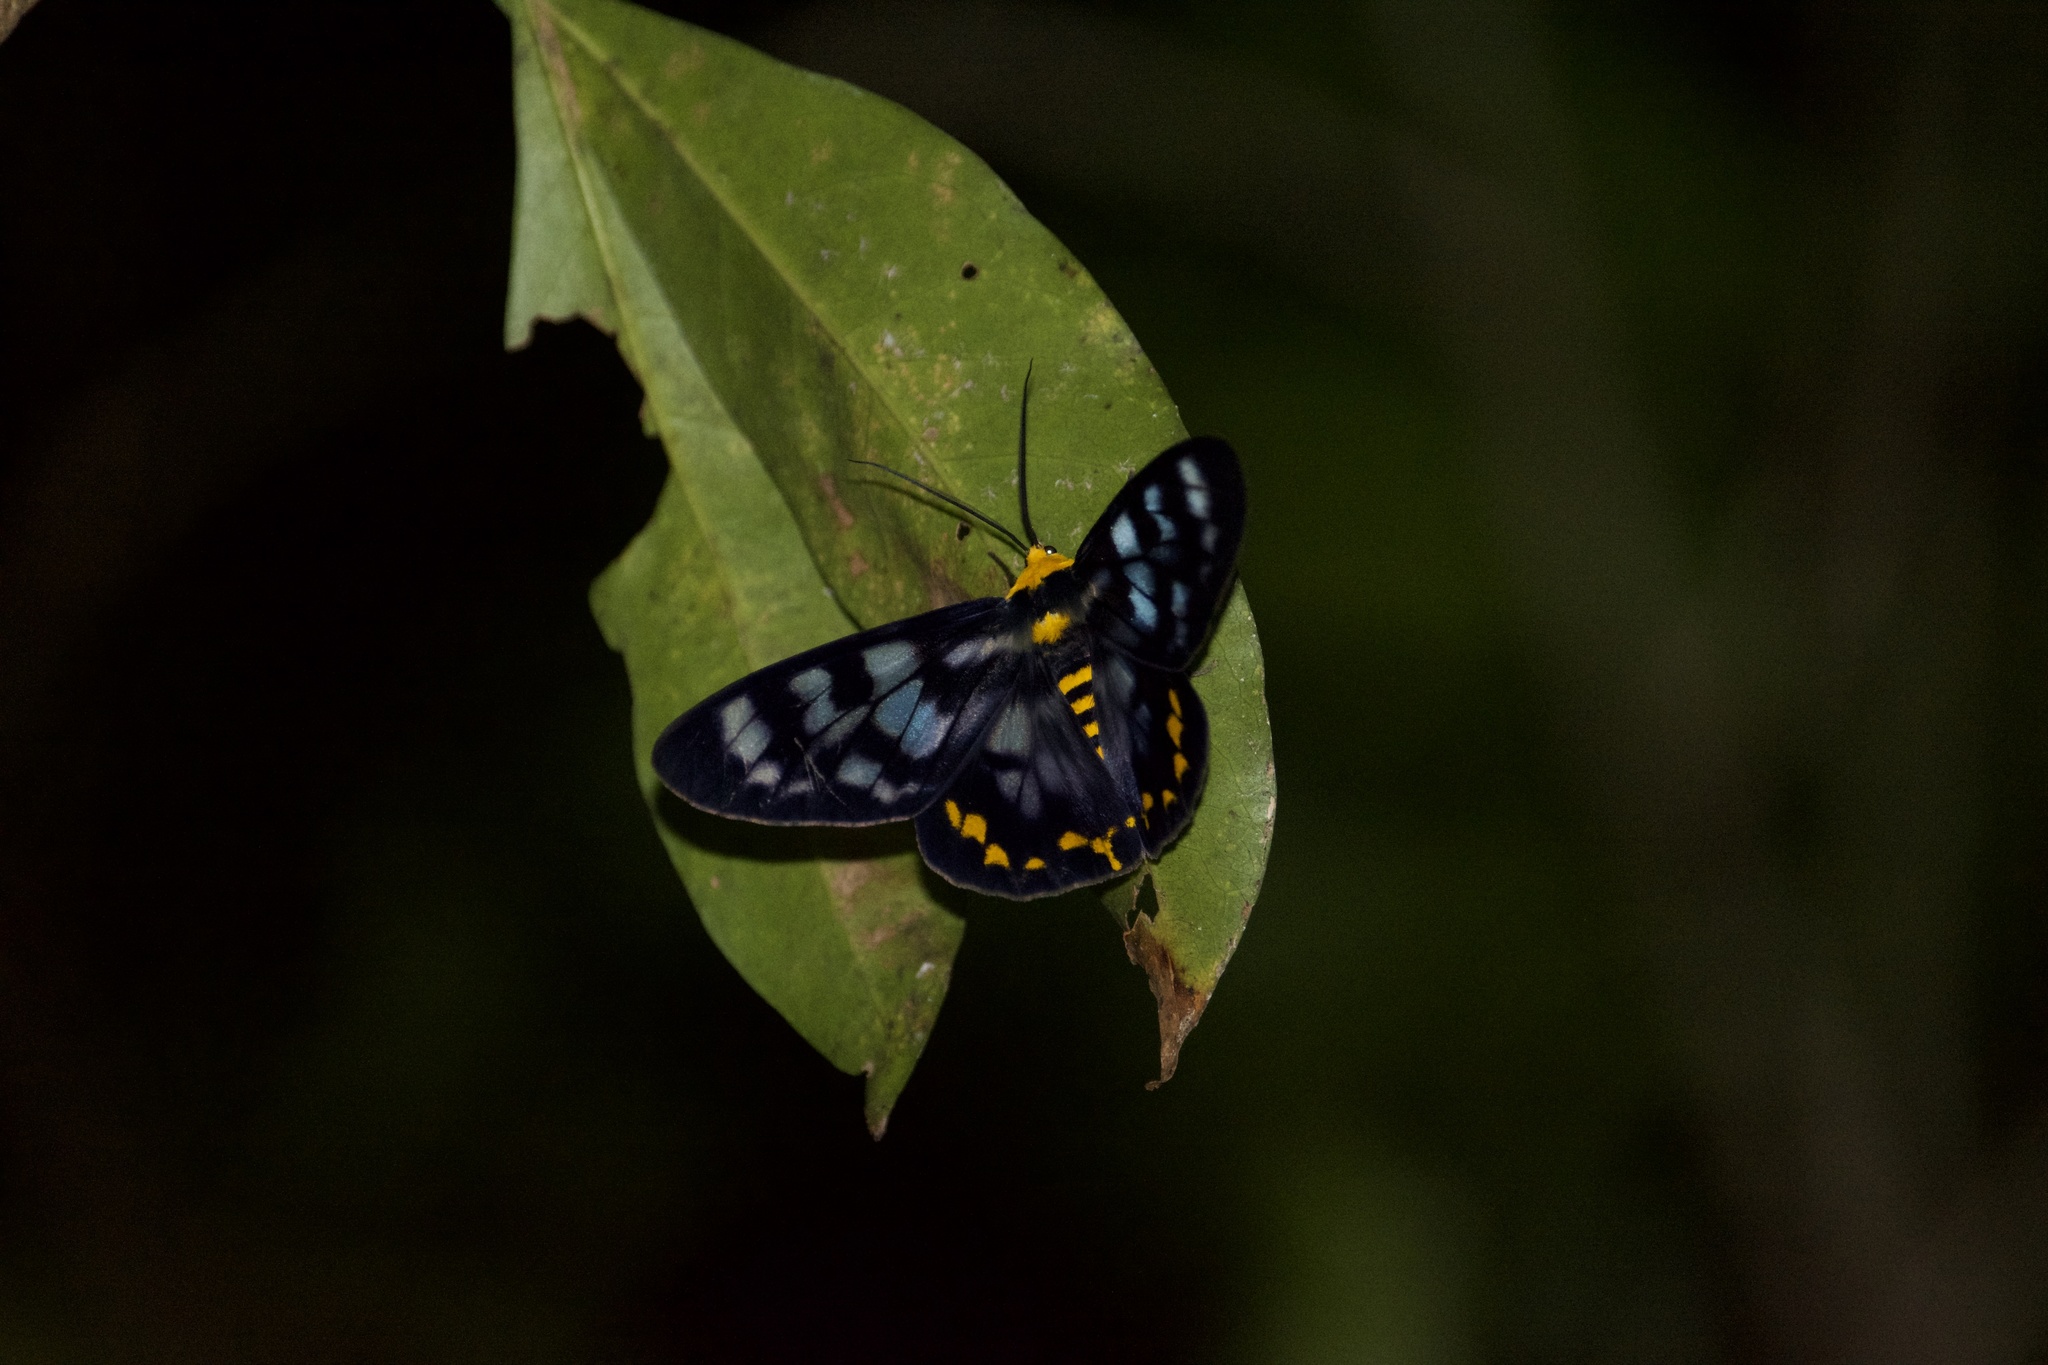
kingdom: Animalia
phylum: Arthropoda
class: Insecta
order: Lepidoptera
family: Geometridae
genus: Dysphania
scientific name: Dysphania numana
